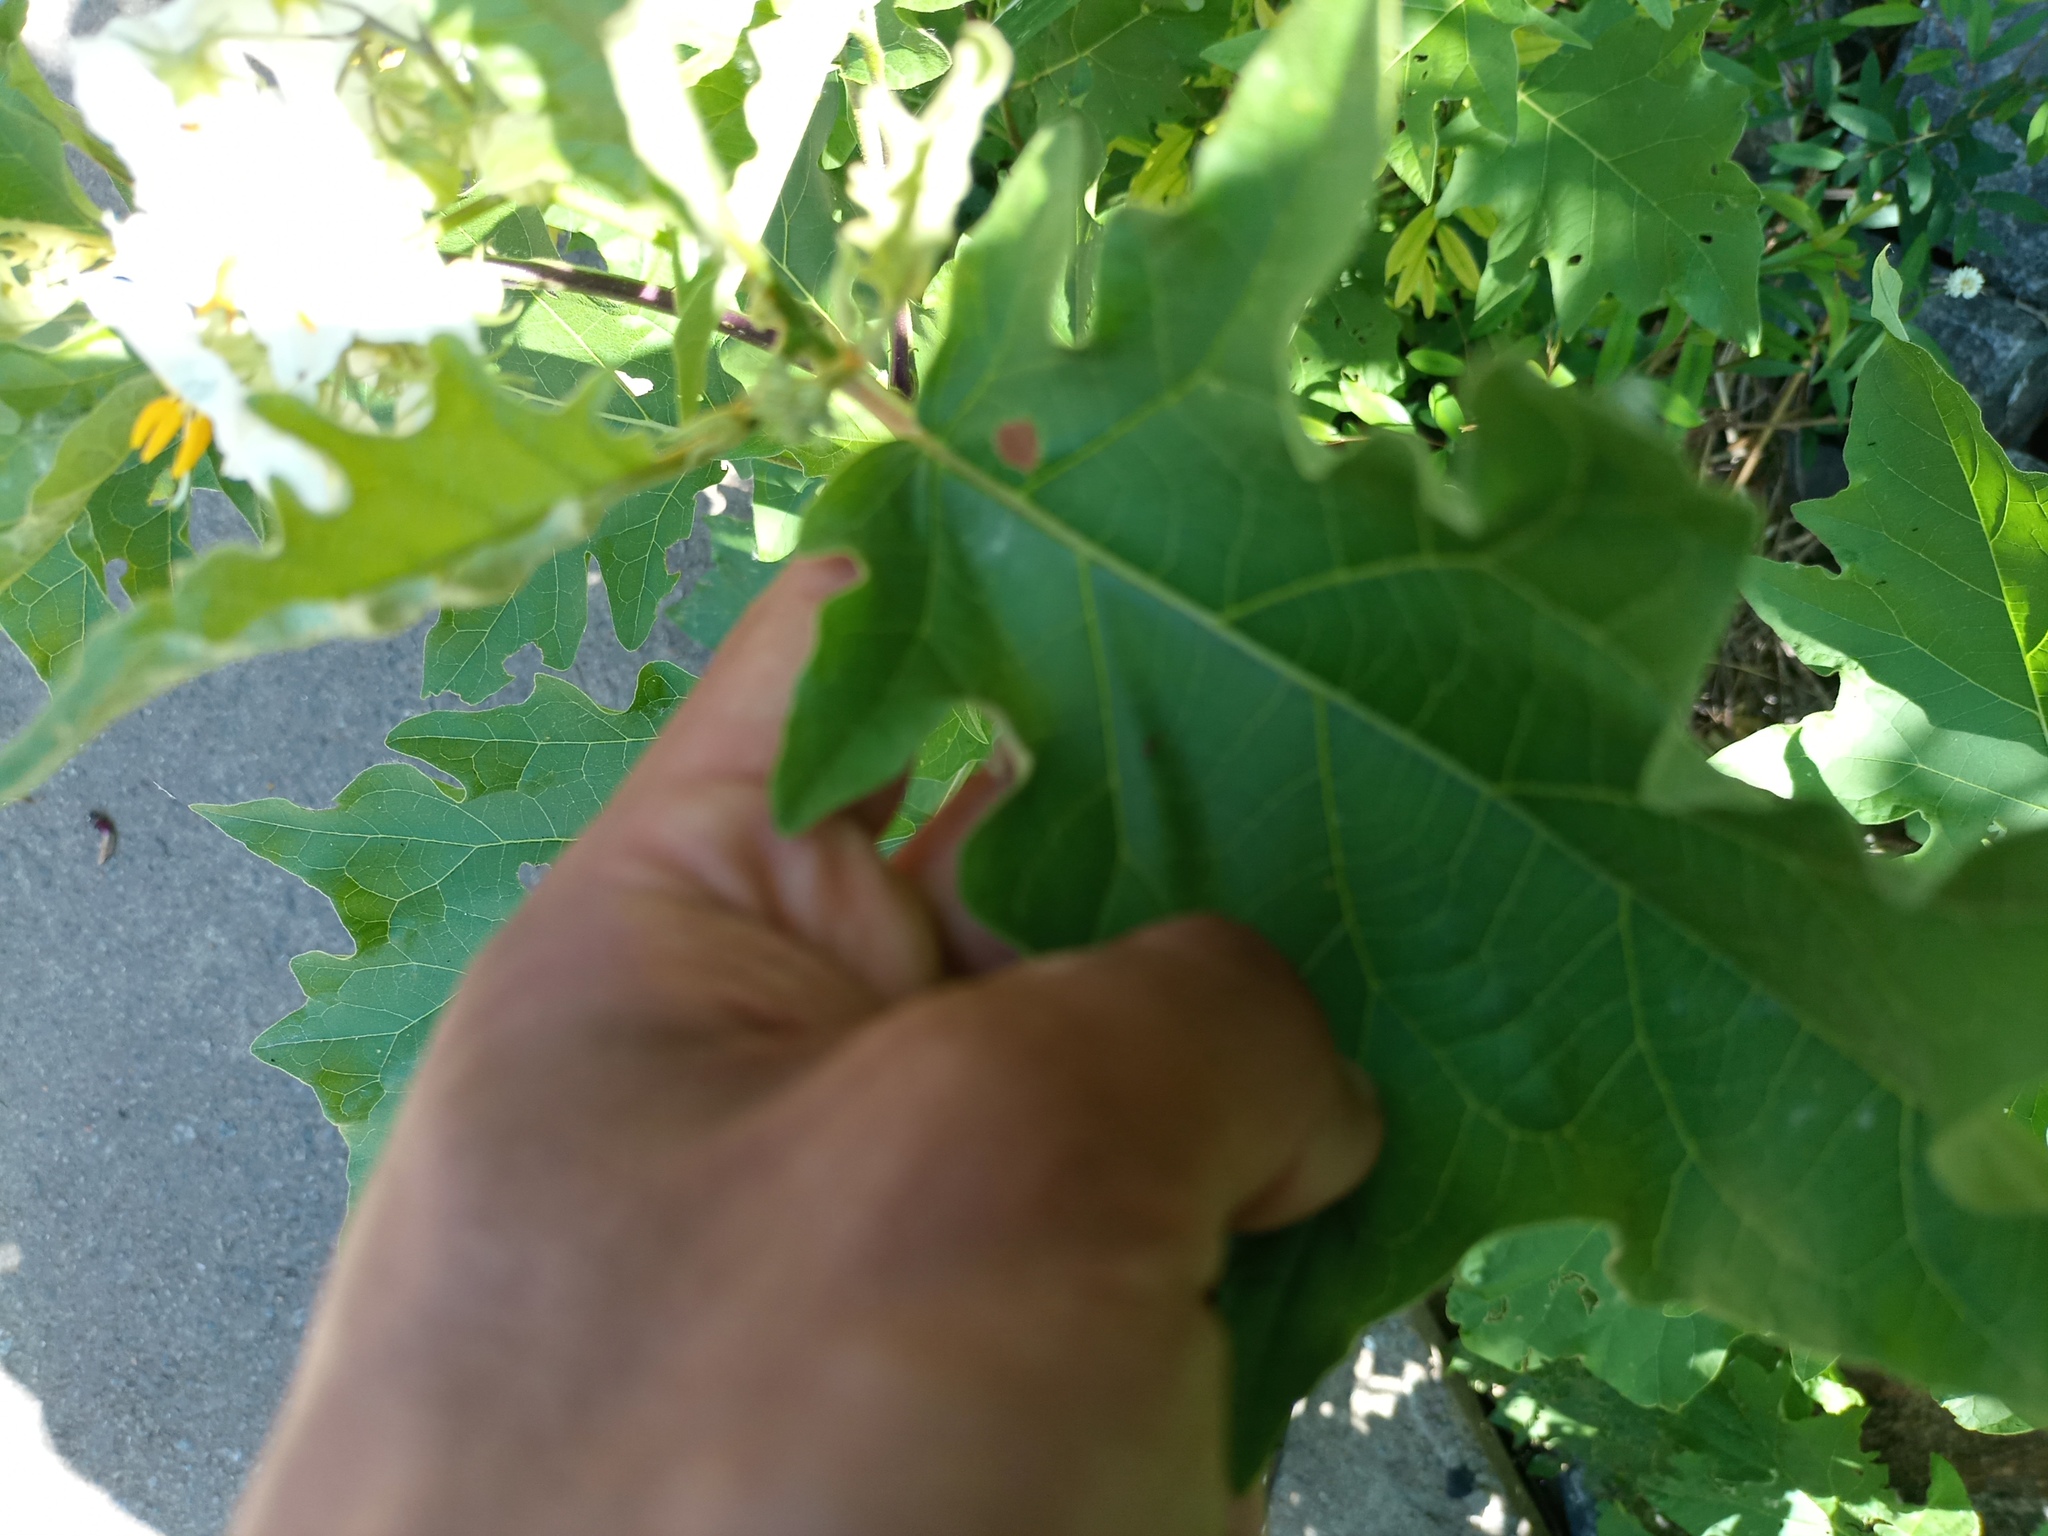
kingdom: Plantae
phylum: Tracheophyta
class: Magnoliopsida
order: Solanales
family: Solanaceae
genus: Solanum
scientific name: Solanum bonariense
